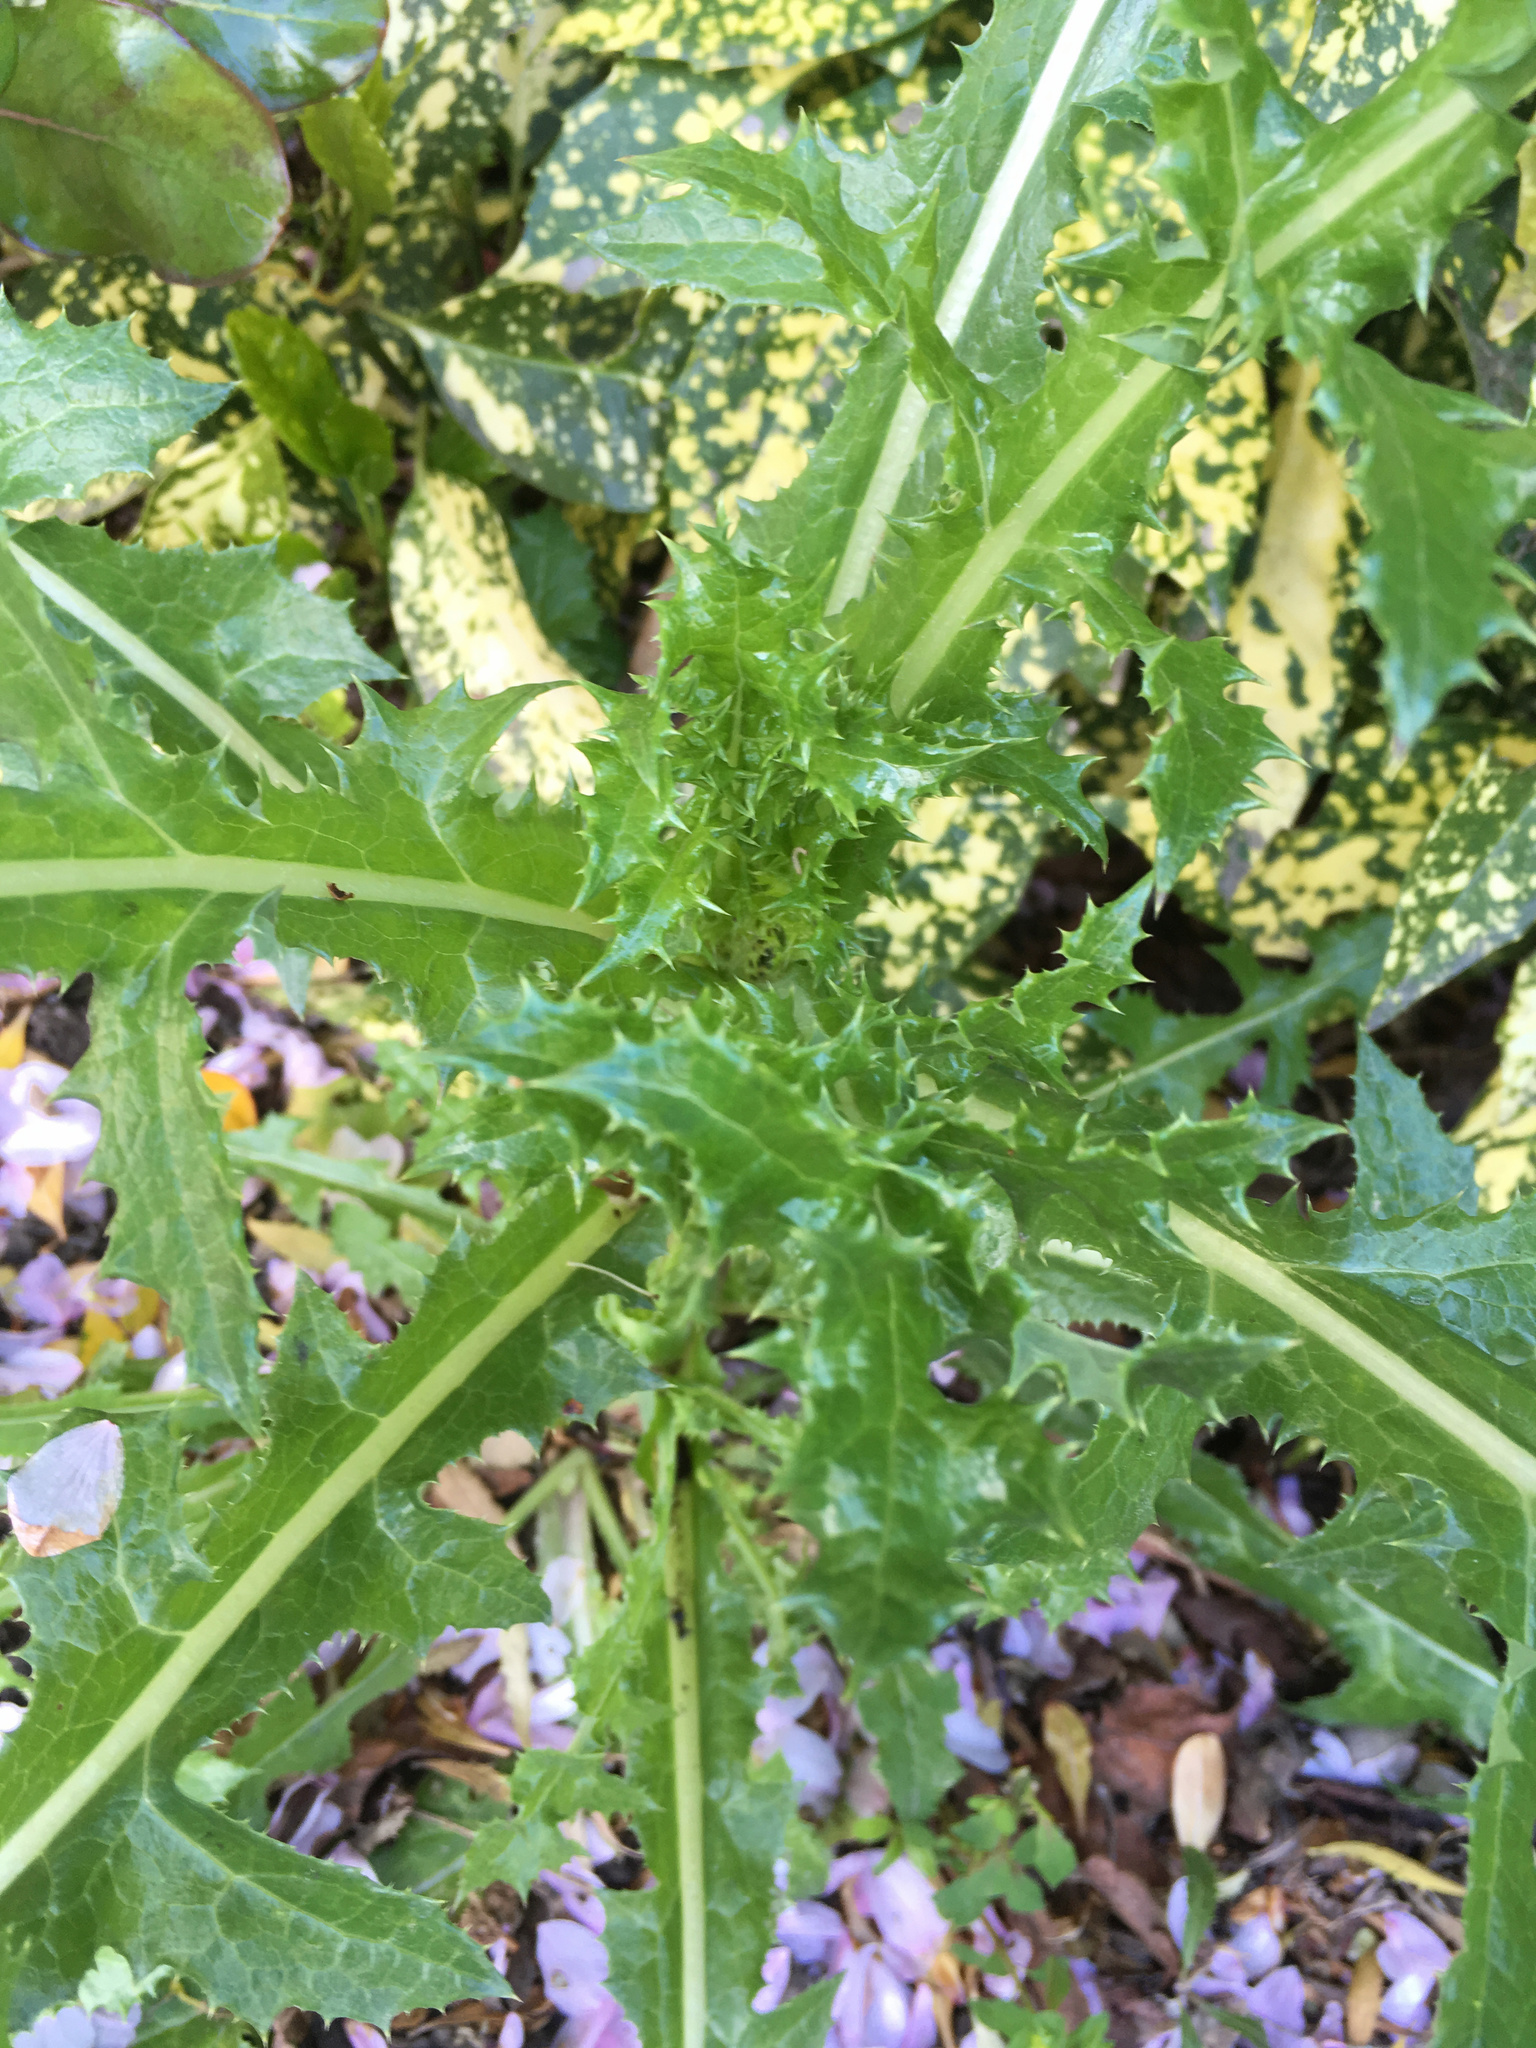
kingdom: Plantae
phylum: Tracheophyta
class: Magnoliopsida
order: Asterales
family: Asteraceae
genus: Sonchus
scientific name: Sonchus asper
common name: Prickly sow-thistle
